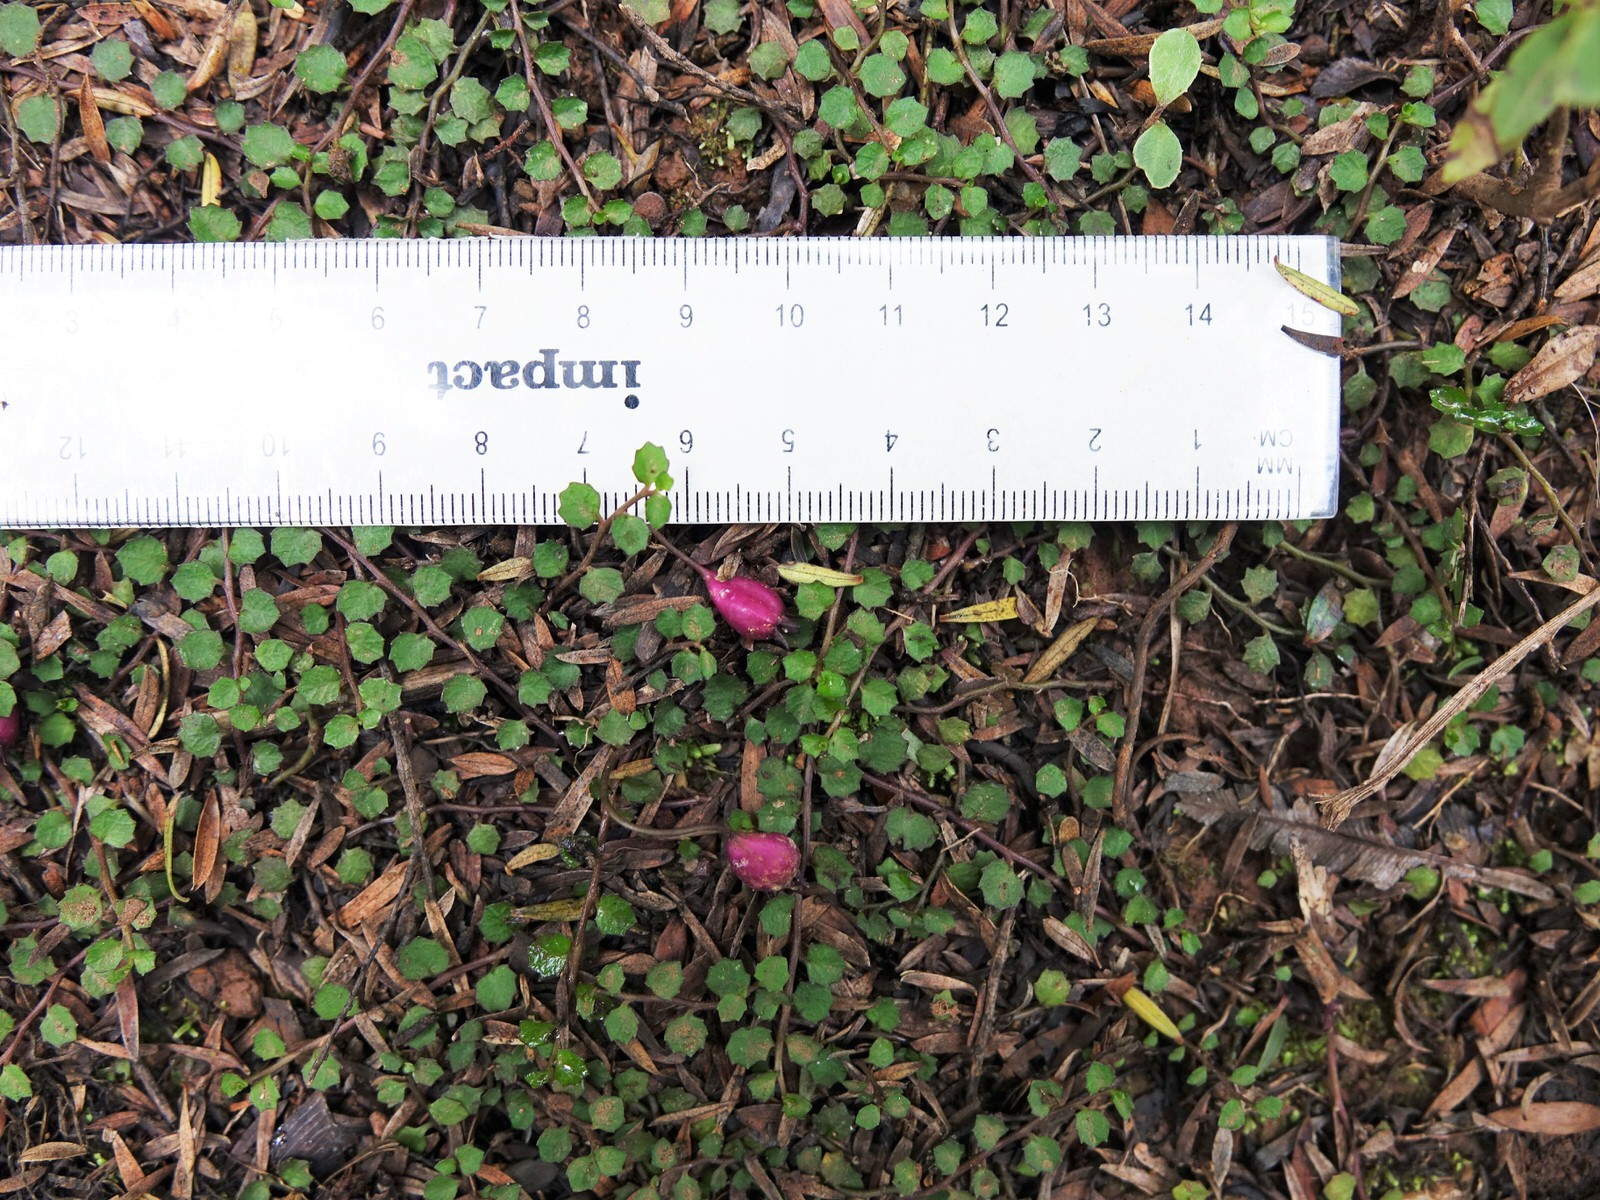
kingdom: Plantae
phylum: Tracheophyta
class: Magnoliopsida
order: Asterales
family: Campanulaceae
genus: Lobelia
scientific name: Lobelia angulata
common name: Lawn lobelia
